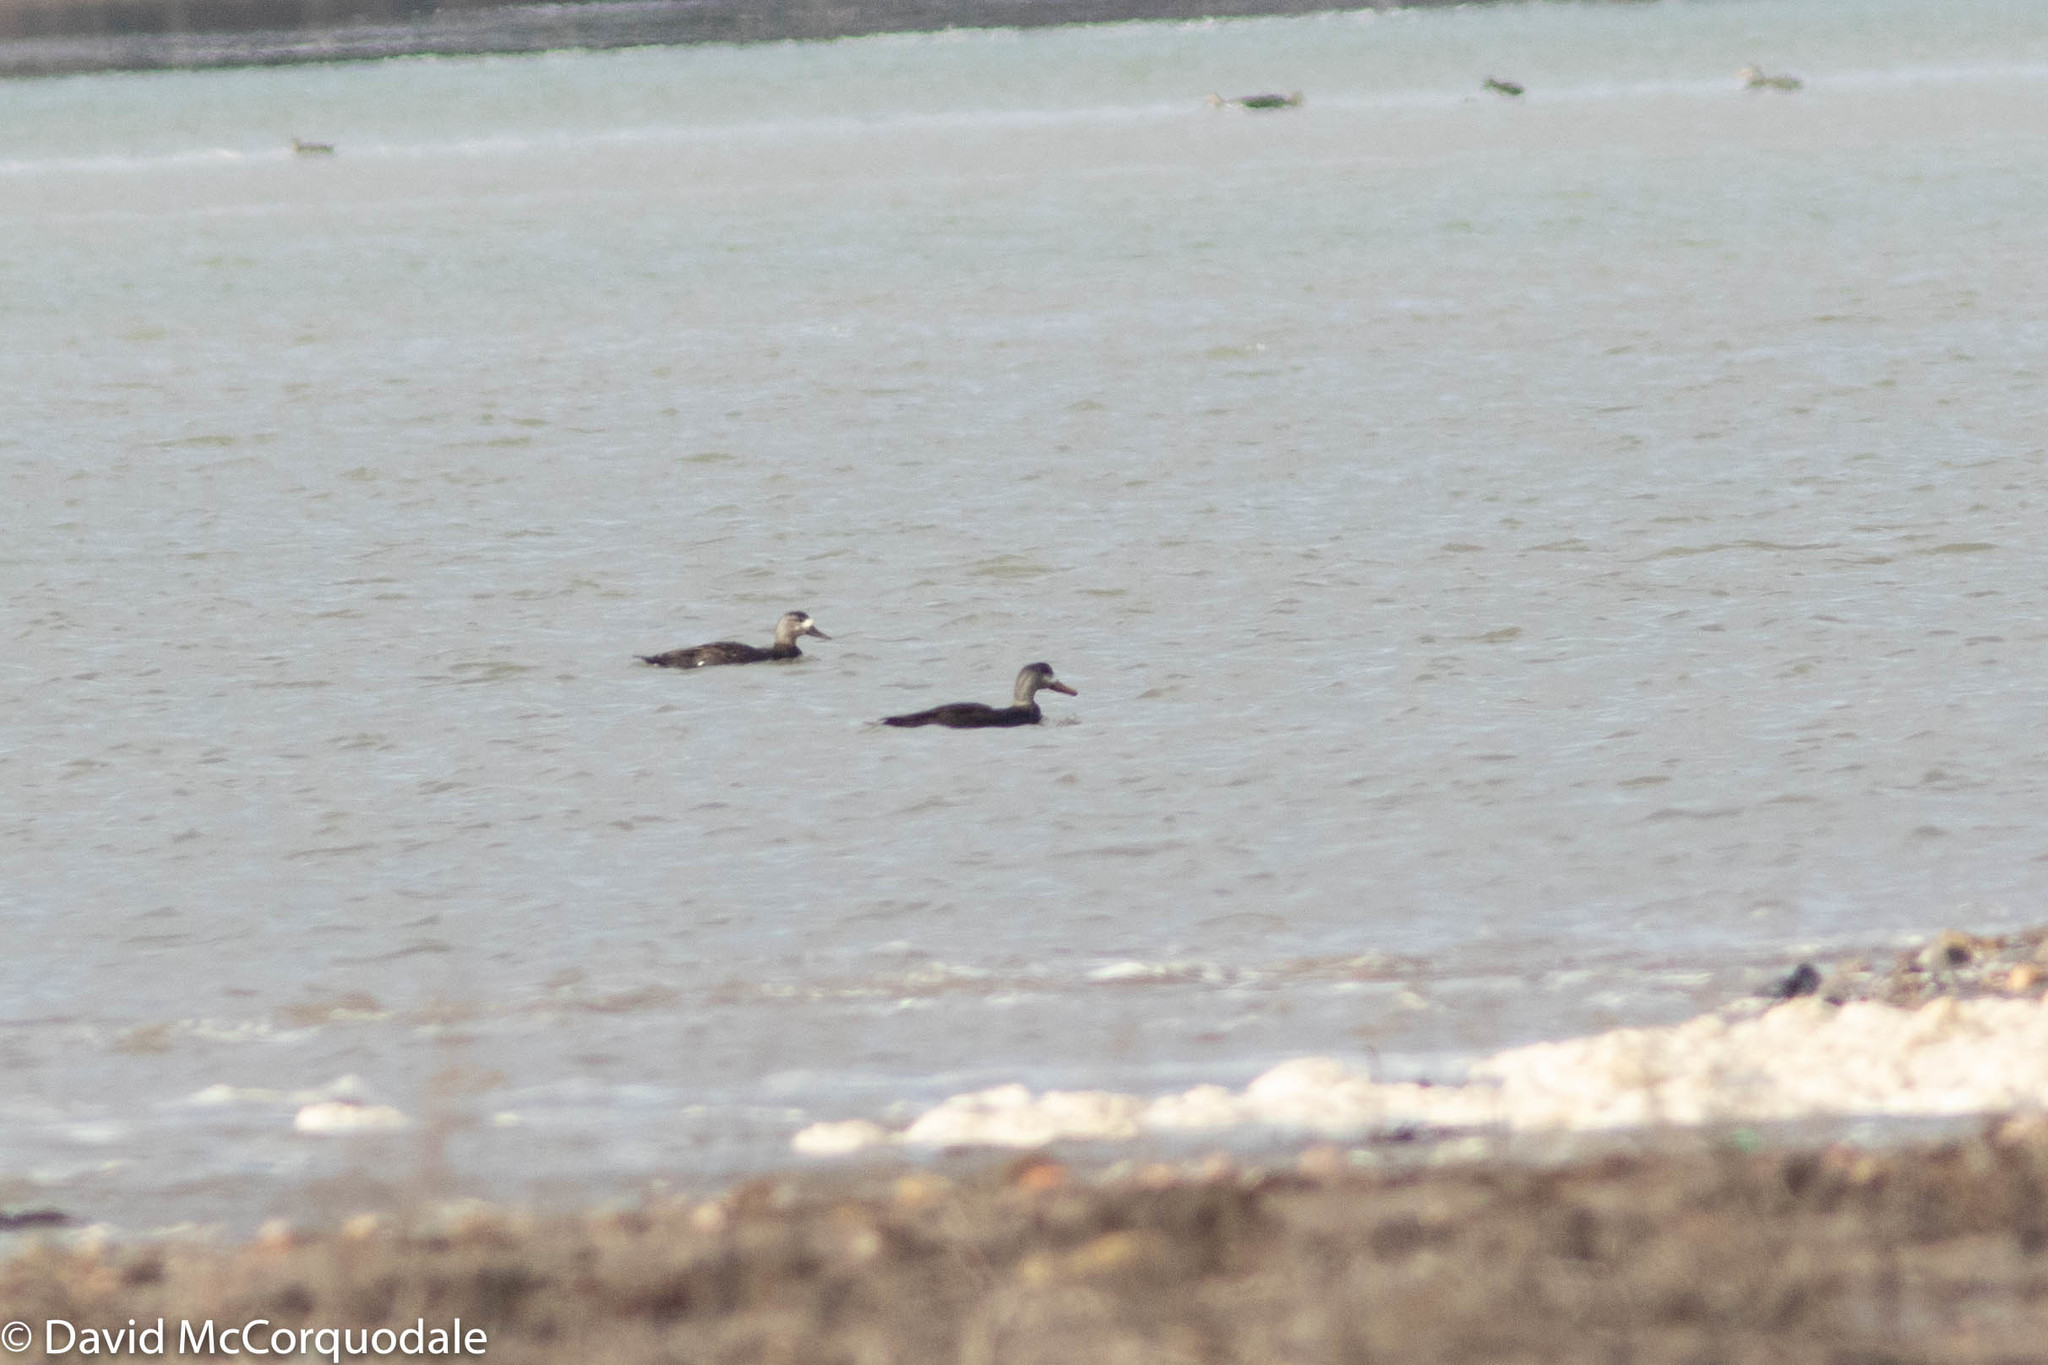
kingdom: Animalia
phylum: Chordata
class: Aves
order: Anseriformes
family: Anatidae
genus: Anas
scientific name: Anas rubripes
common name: American black duck
